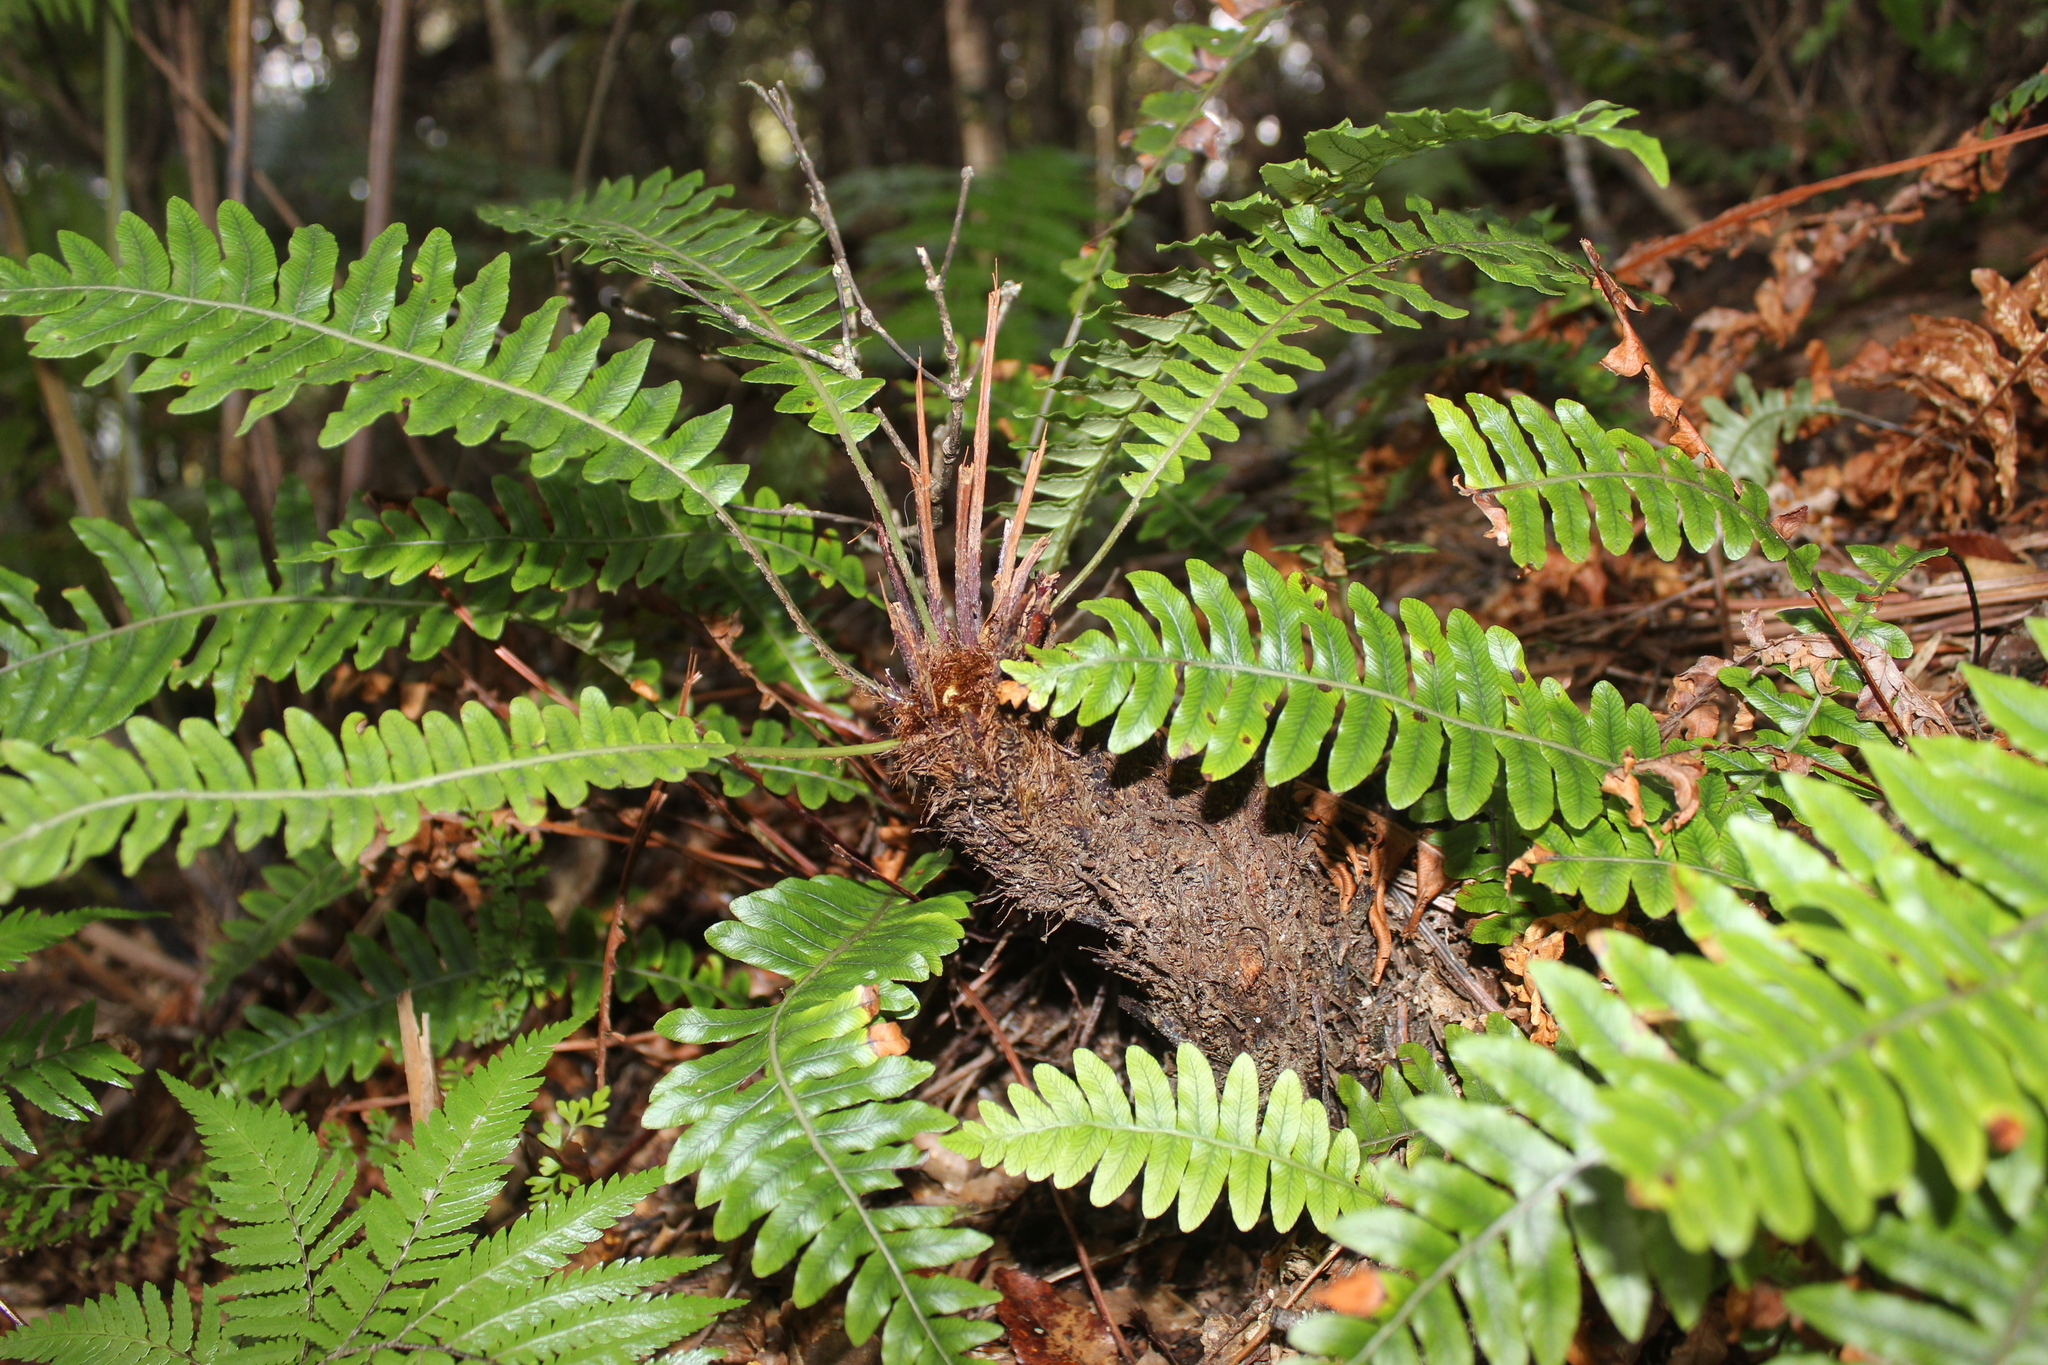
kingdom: Plantae
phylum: Tracheophyta
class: Polypodiopsida
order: Polypodiales
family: Blechnaceae
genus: Lomaria
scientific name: Lomaria discolor
